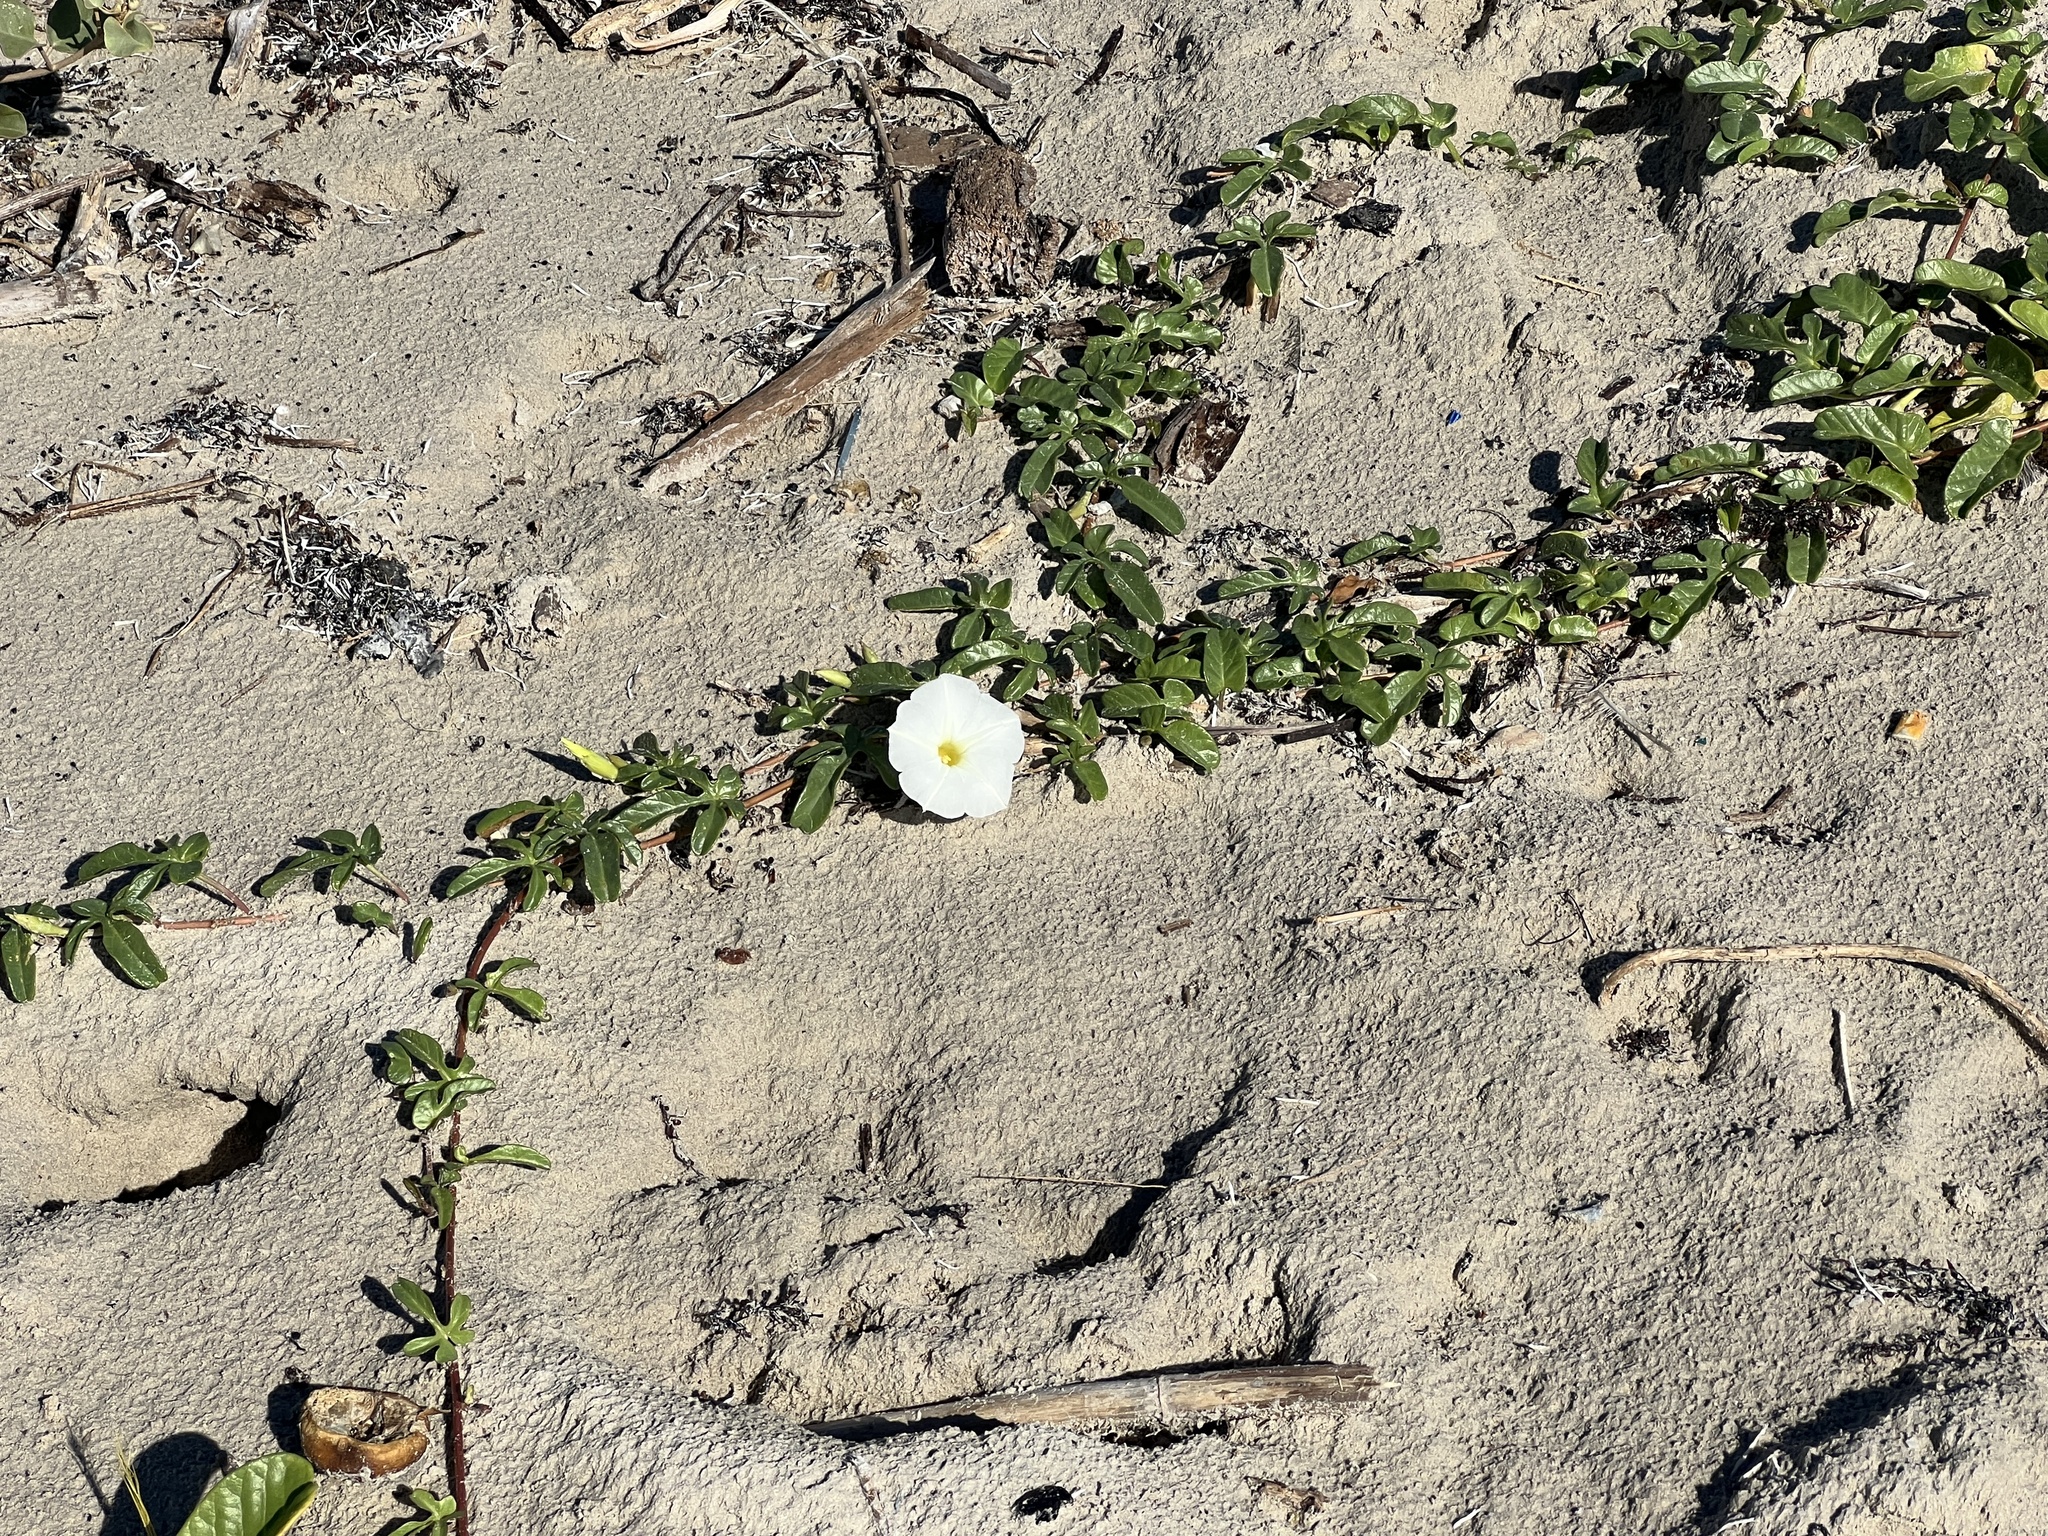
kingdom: Plantae
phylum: Tracheophyta
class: Magnoliopsida
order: Solanales
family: Convolvulaceae
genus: Ipomoea
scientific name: Ipomoea imperati
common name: Fiddle-leaf morning-glory
